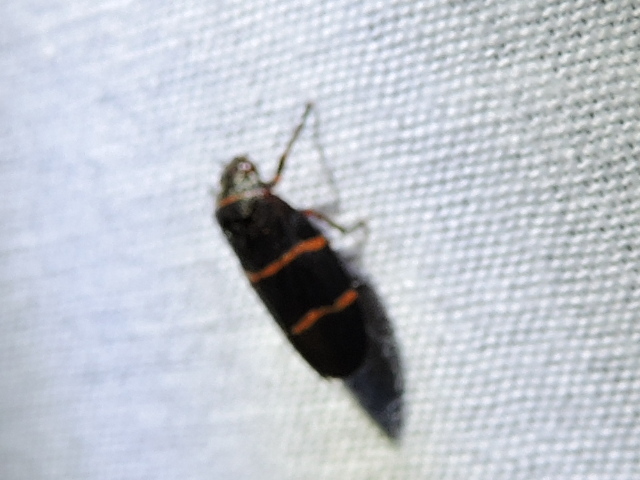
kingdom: Animalia
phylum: Arthropoda
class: Insecta
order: Hemiptera
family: Cercopidae
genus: Prosapia
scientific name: Prosapia bicincta
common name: Twolined spittlebug
